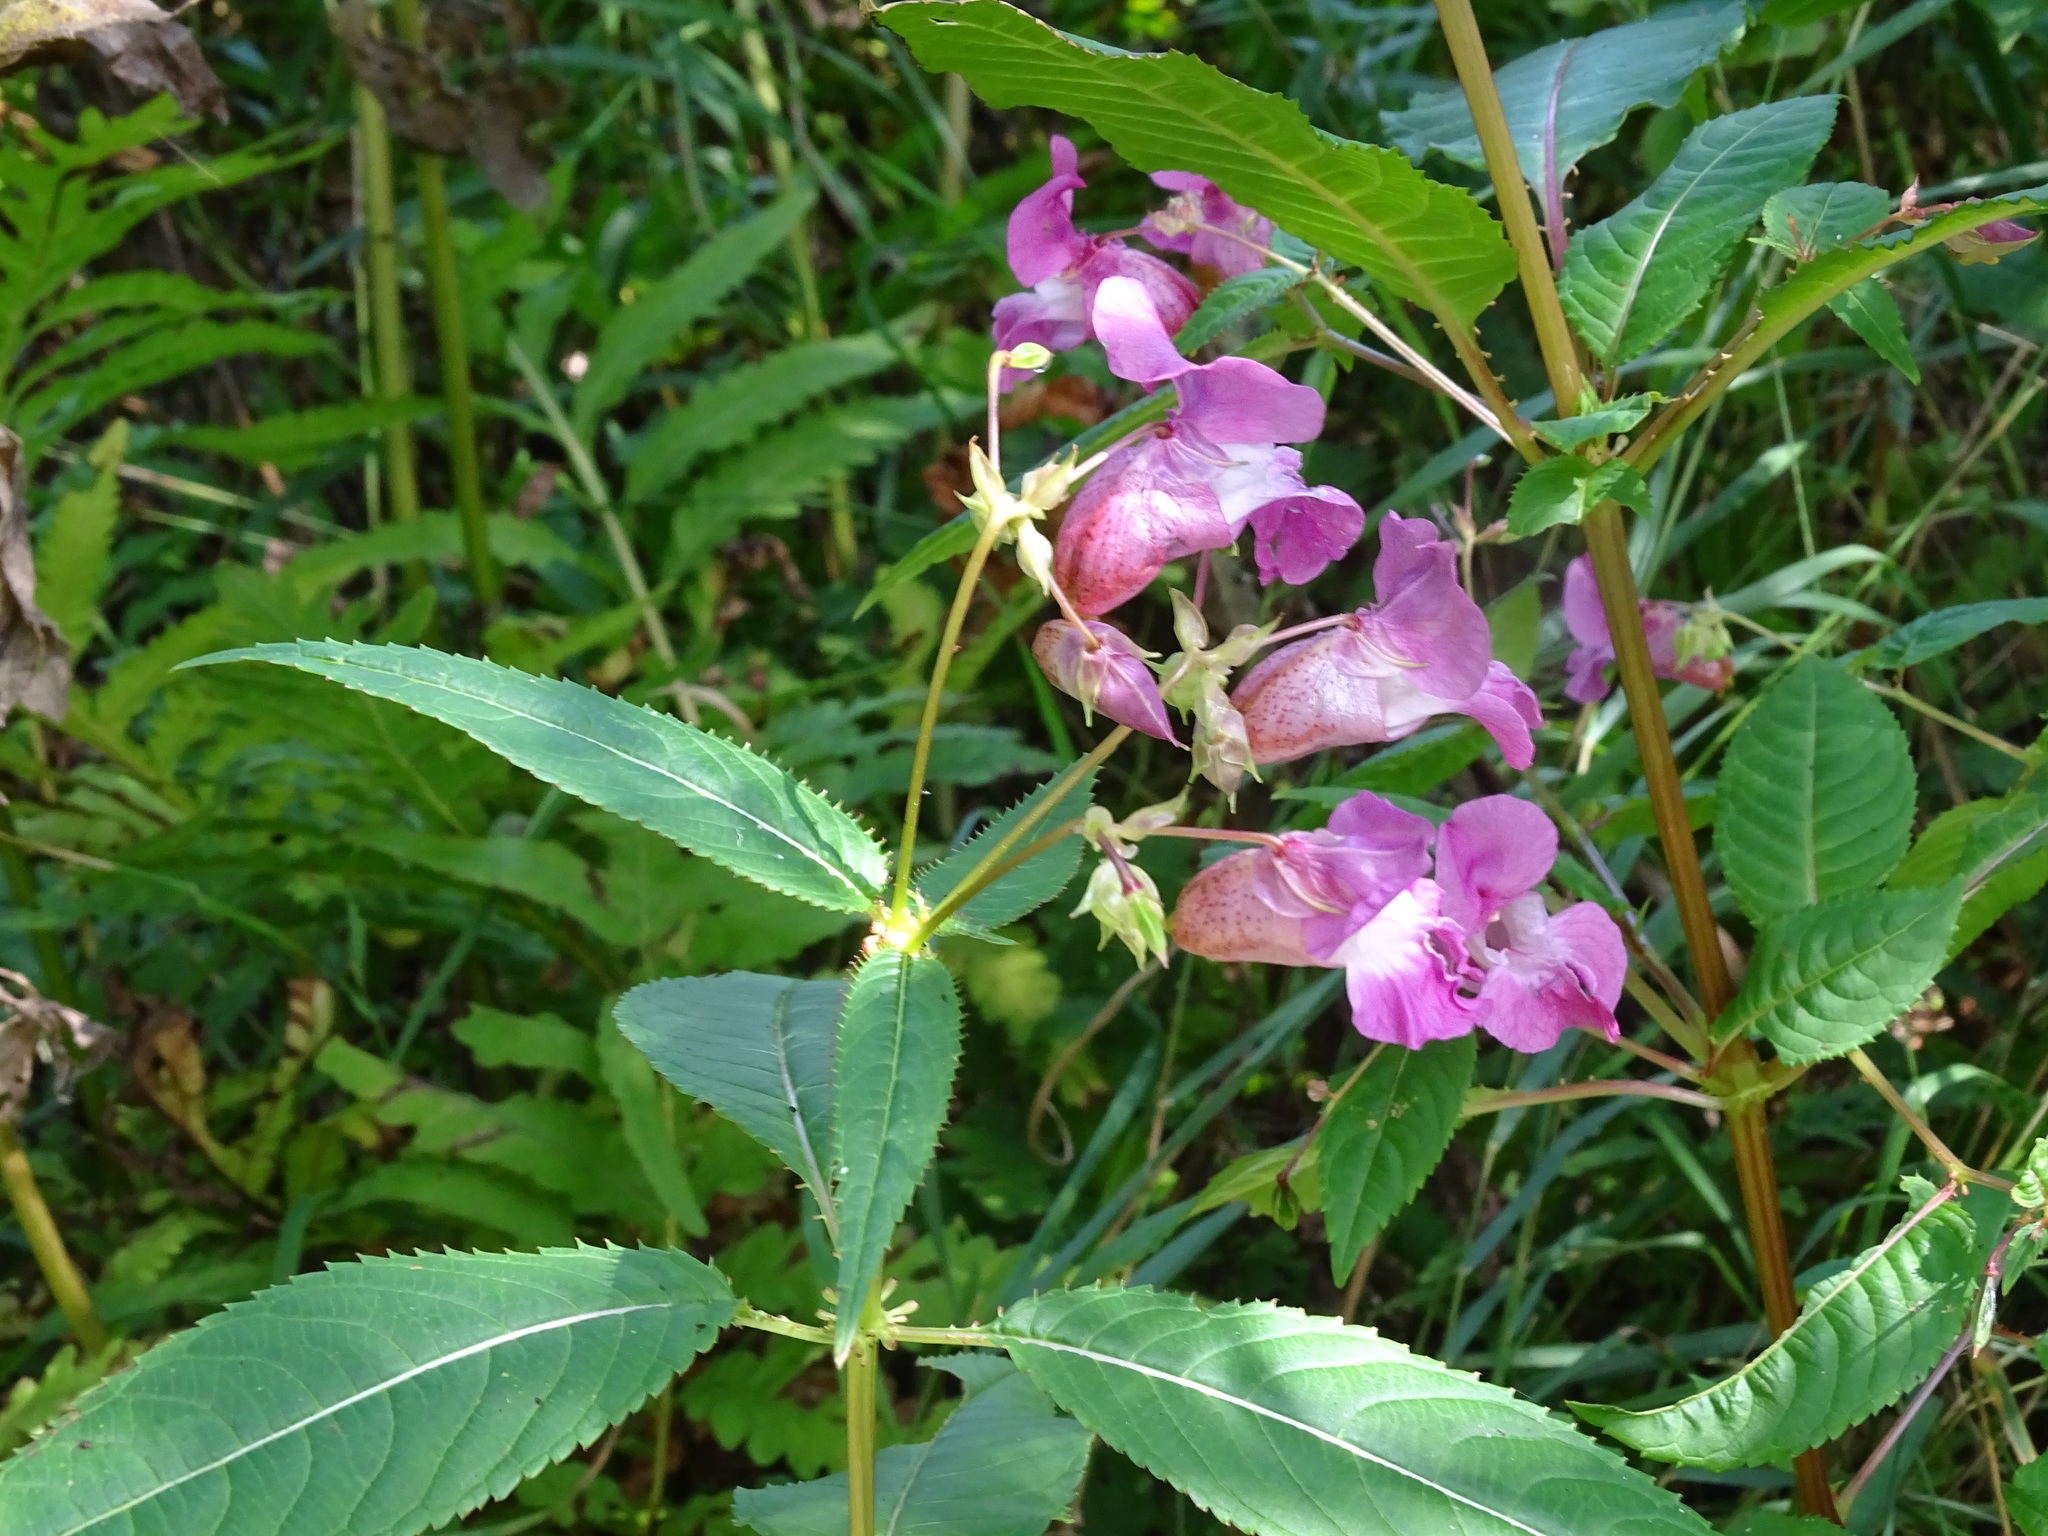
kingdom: Plantae
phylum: Tracheophyta
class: Magnoliopsida
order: Ericales
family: Balsaminaceae
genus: Impatiens
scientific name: Impatiens glandulifera
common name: Himalayan balsam
